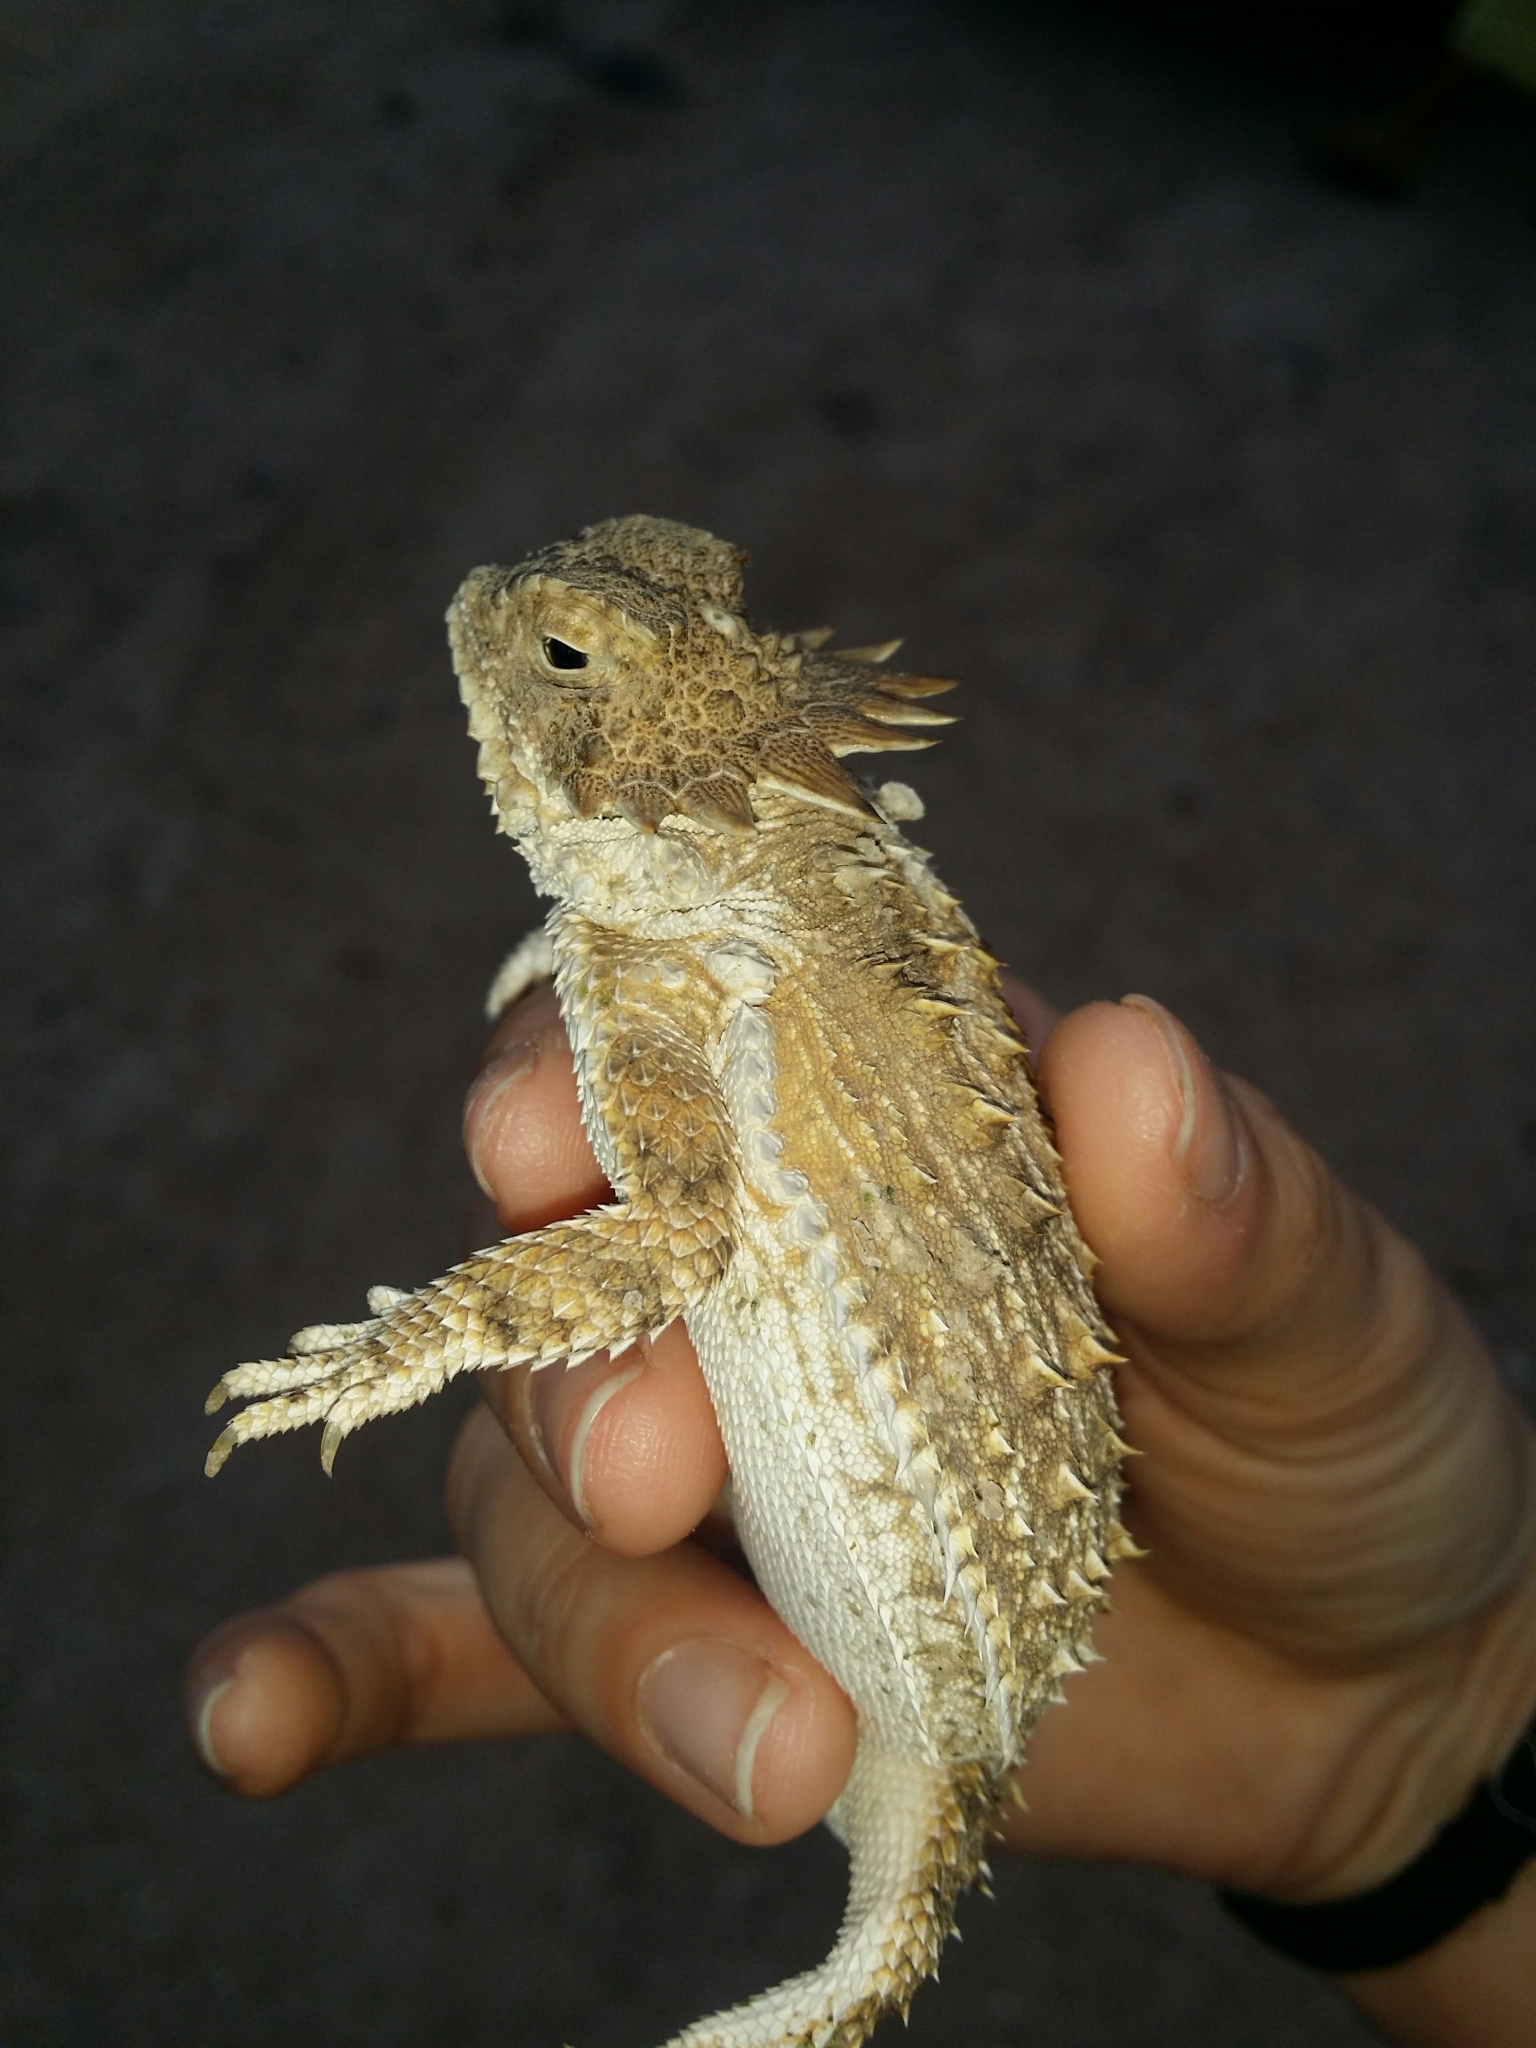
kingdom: Animalia
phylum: Chordata
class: Squamata
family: Phrynosomatidae
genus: Phrynosoma
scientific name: Phrynosoma solare
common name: Regal horned lizard
